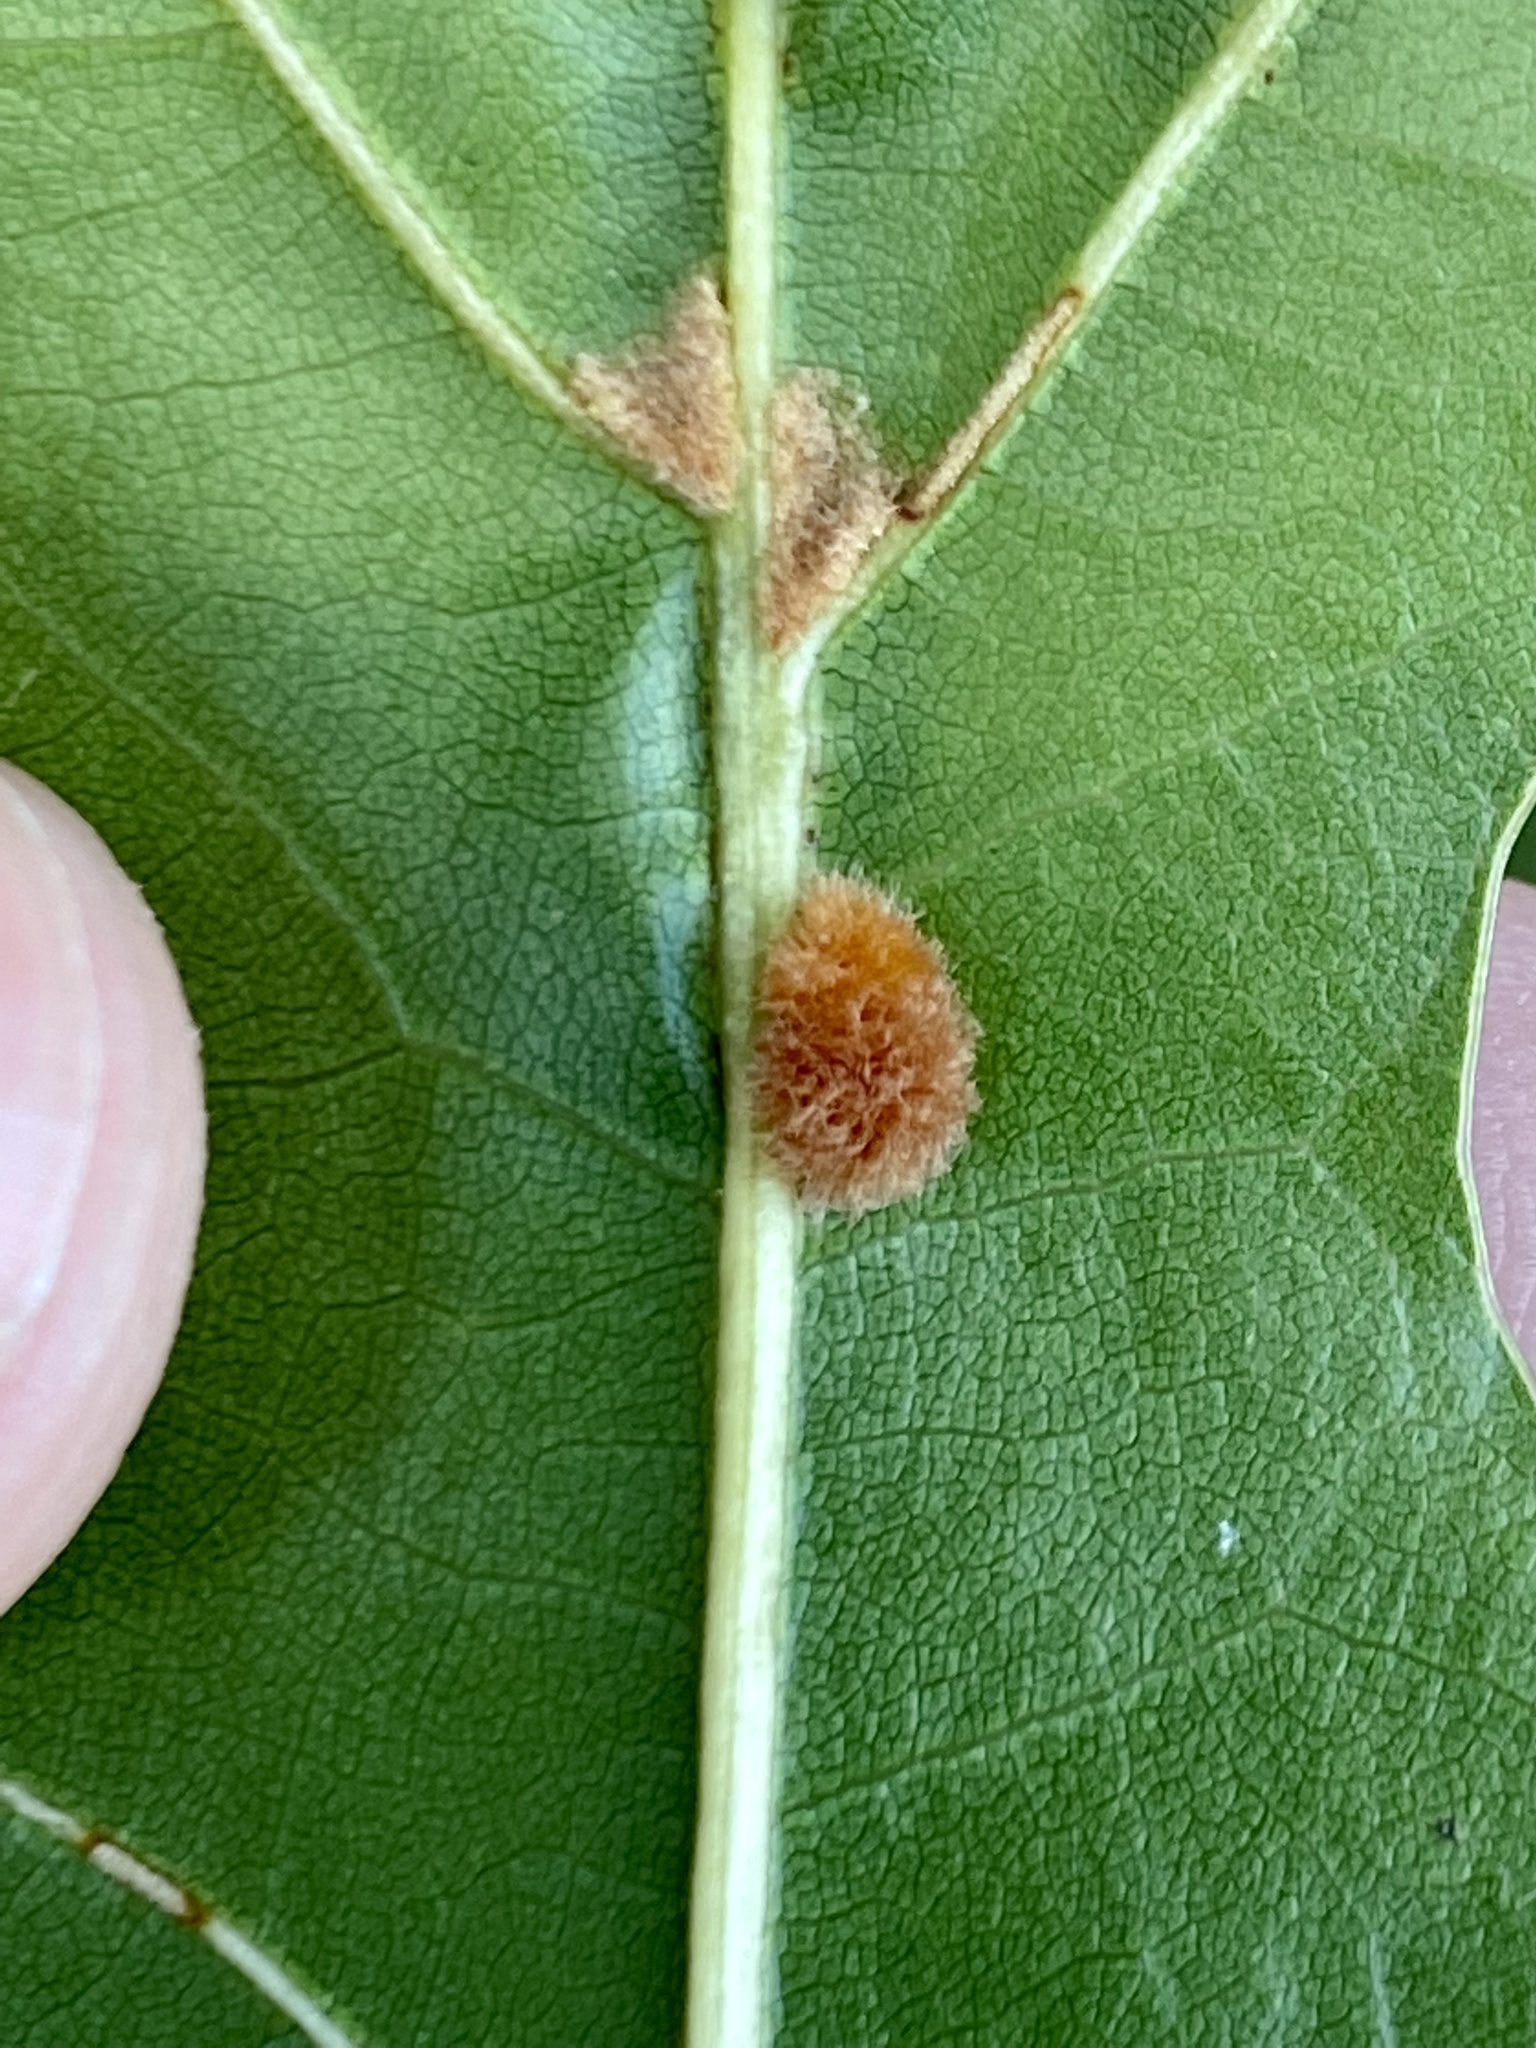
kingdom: Animalia
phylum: Arthropoda
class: Insecta
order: Hymenoptera
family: Cynipidae
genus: Callirhytis
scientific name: Callirhytis
